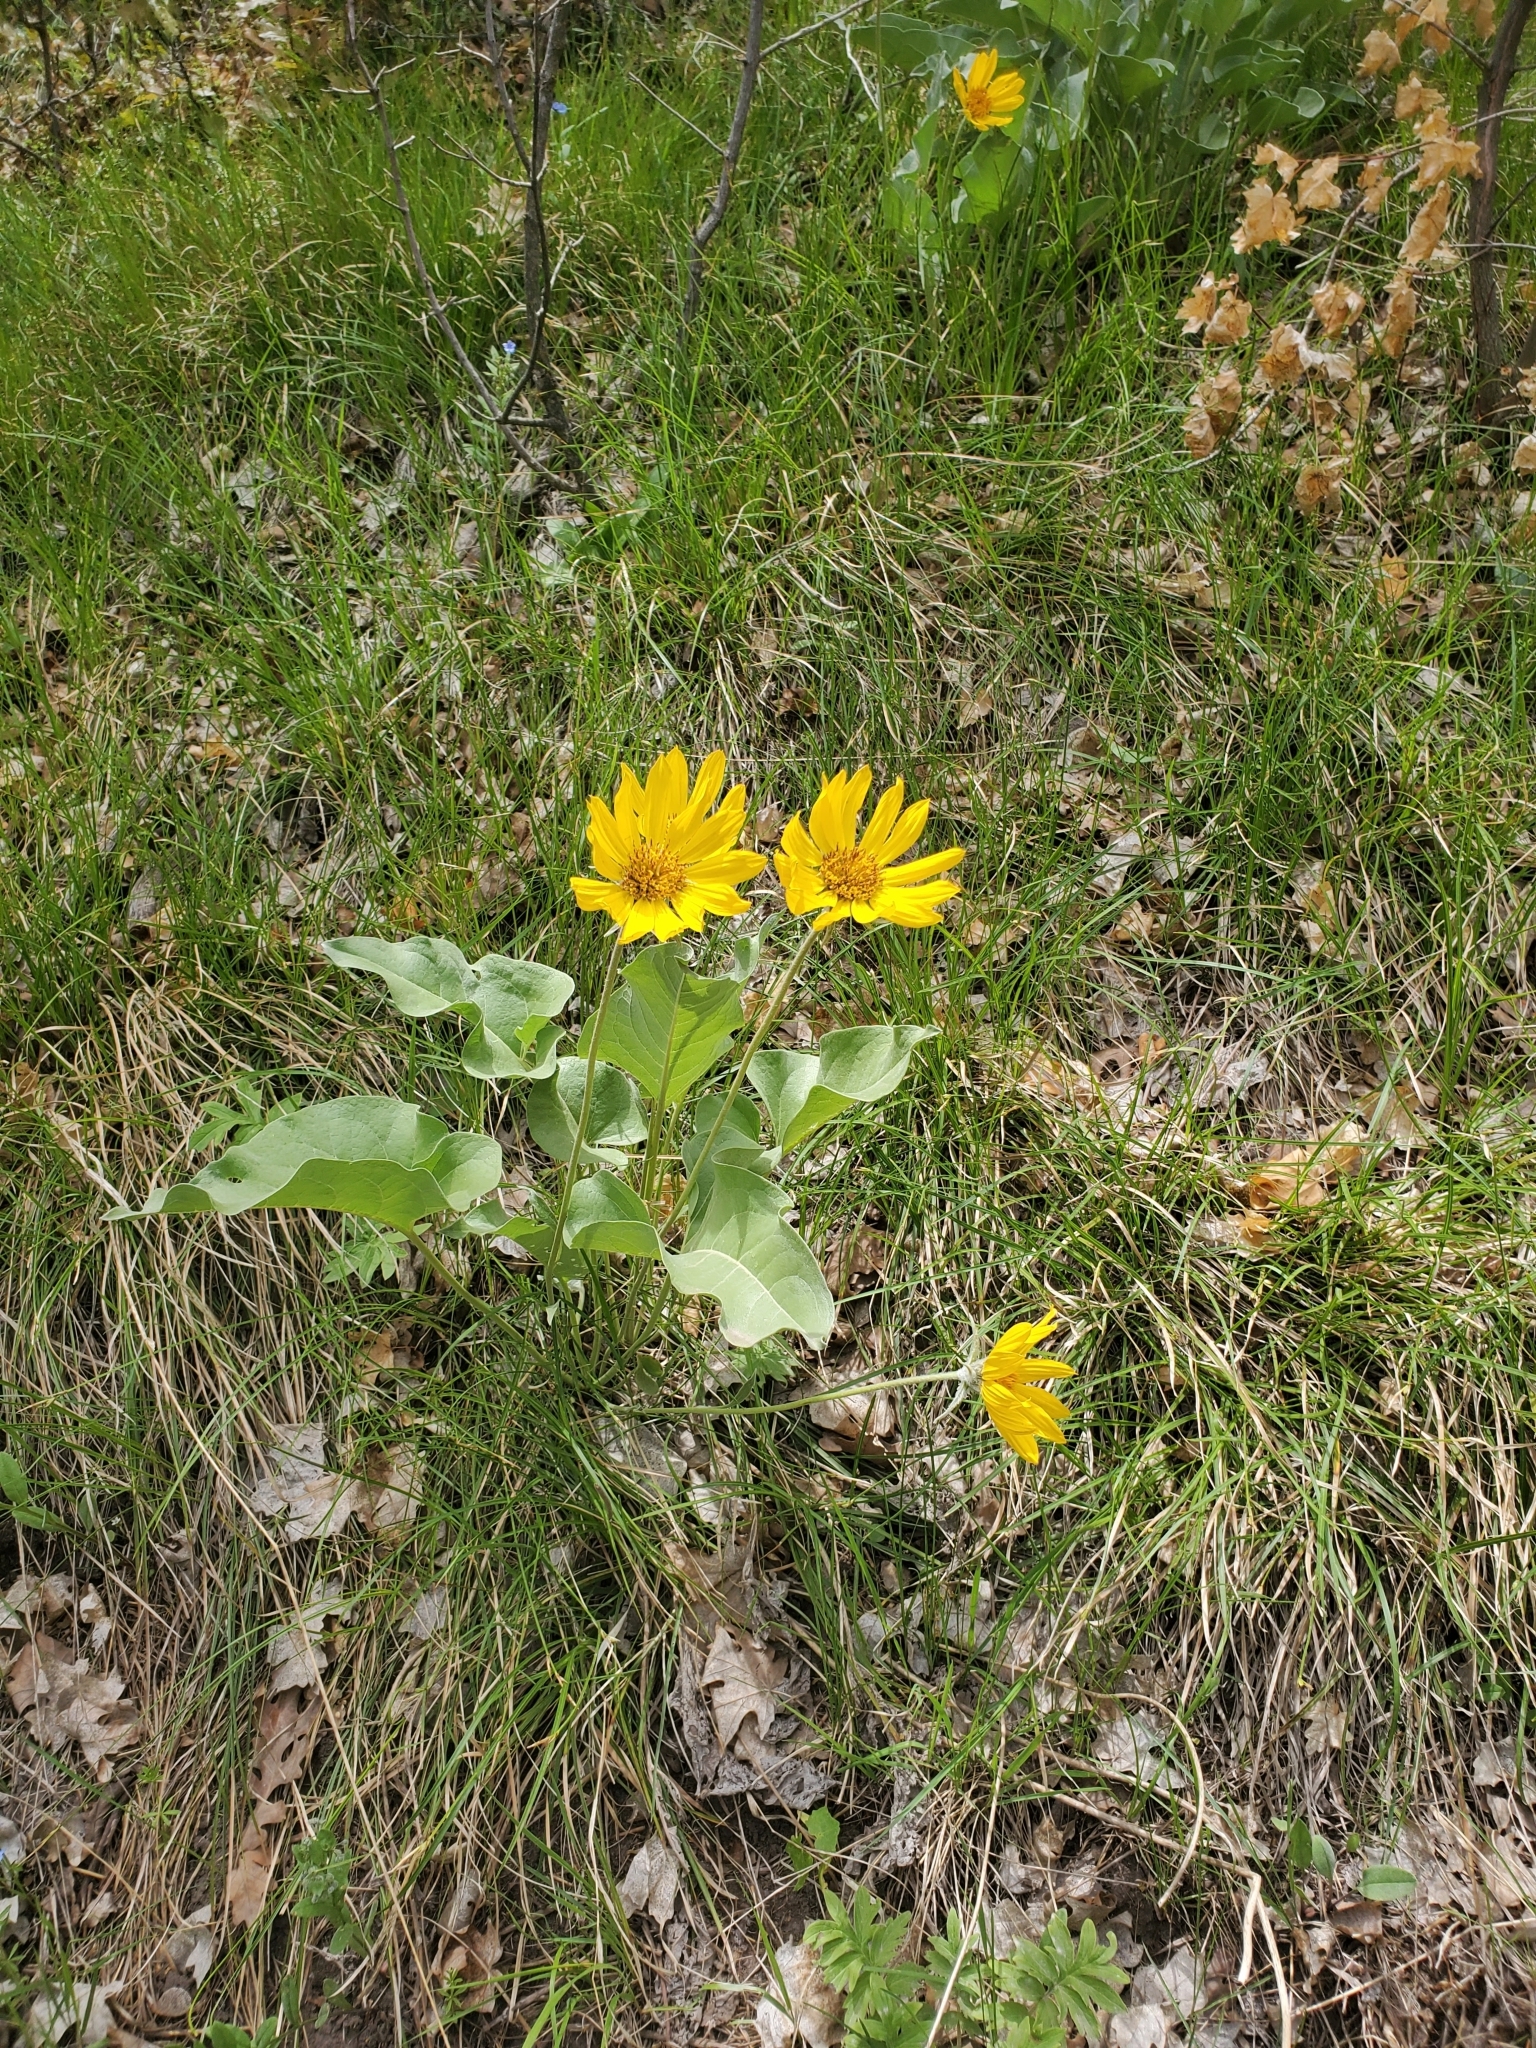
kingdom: Plantae
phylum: Tracheophyta
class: Magnoliopsida
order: Asterales
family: Asteraceae
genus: Wyethia
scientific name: Wyethia sagittata
